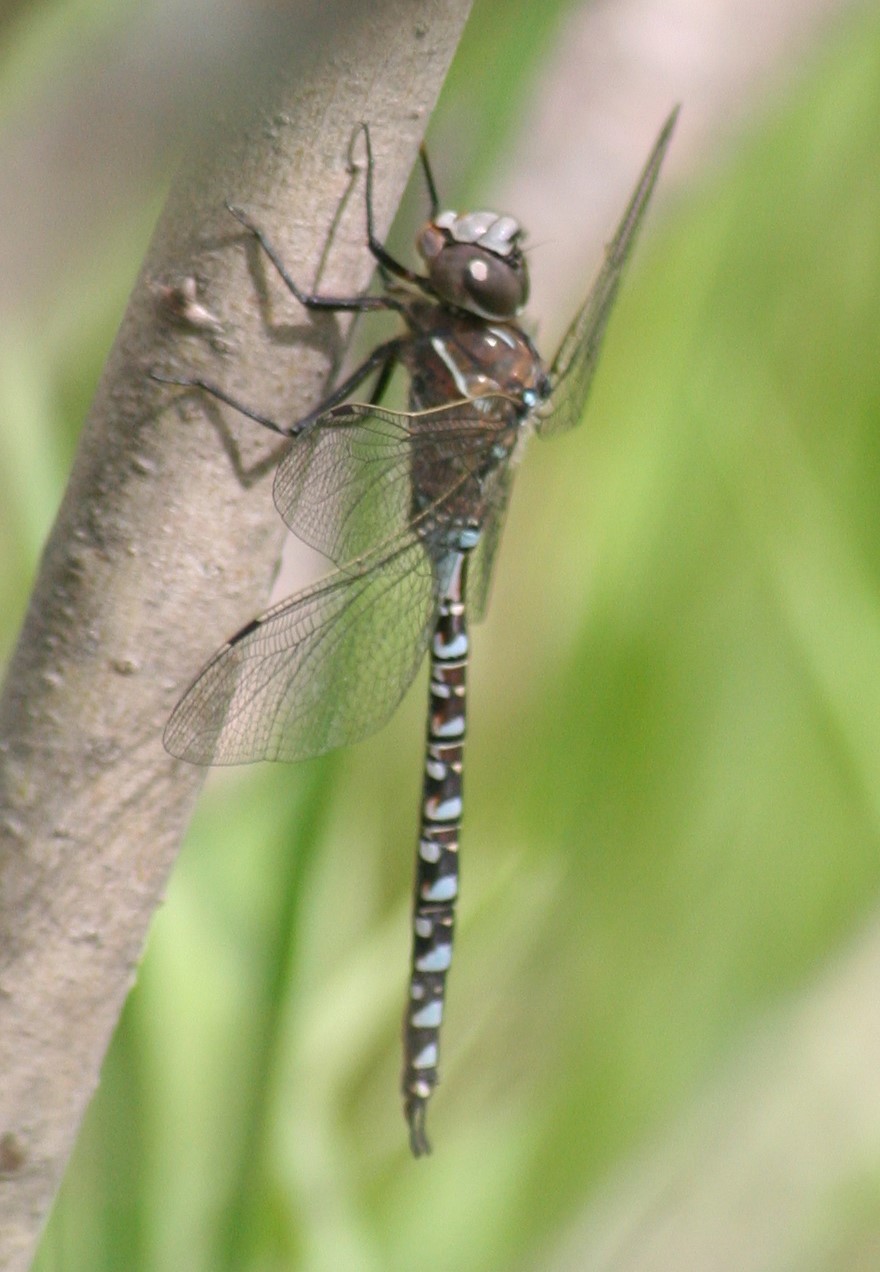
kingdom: Animalia
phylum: Arthropoda
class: Insecta
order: Odonata
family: Aeshnidae
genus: Aeshna
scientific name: Aeshna interrupta
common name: Variable darner
